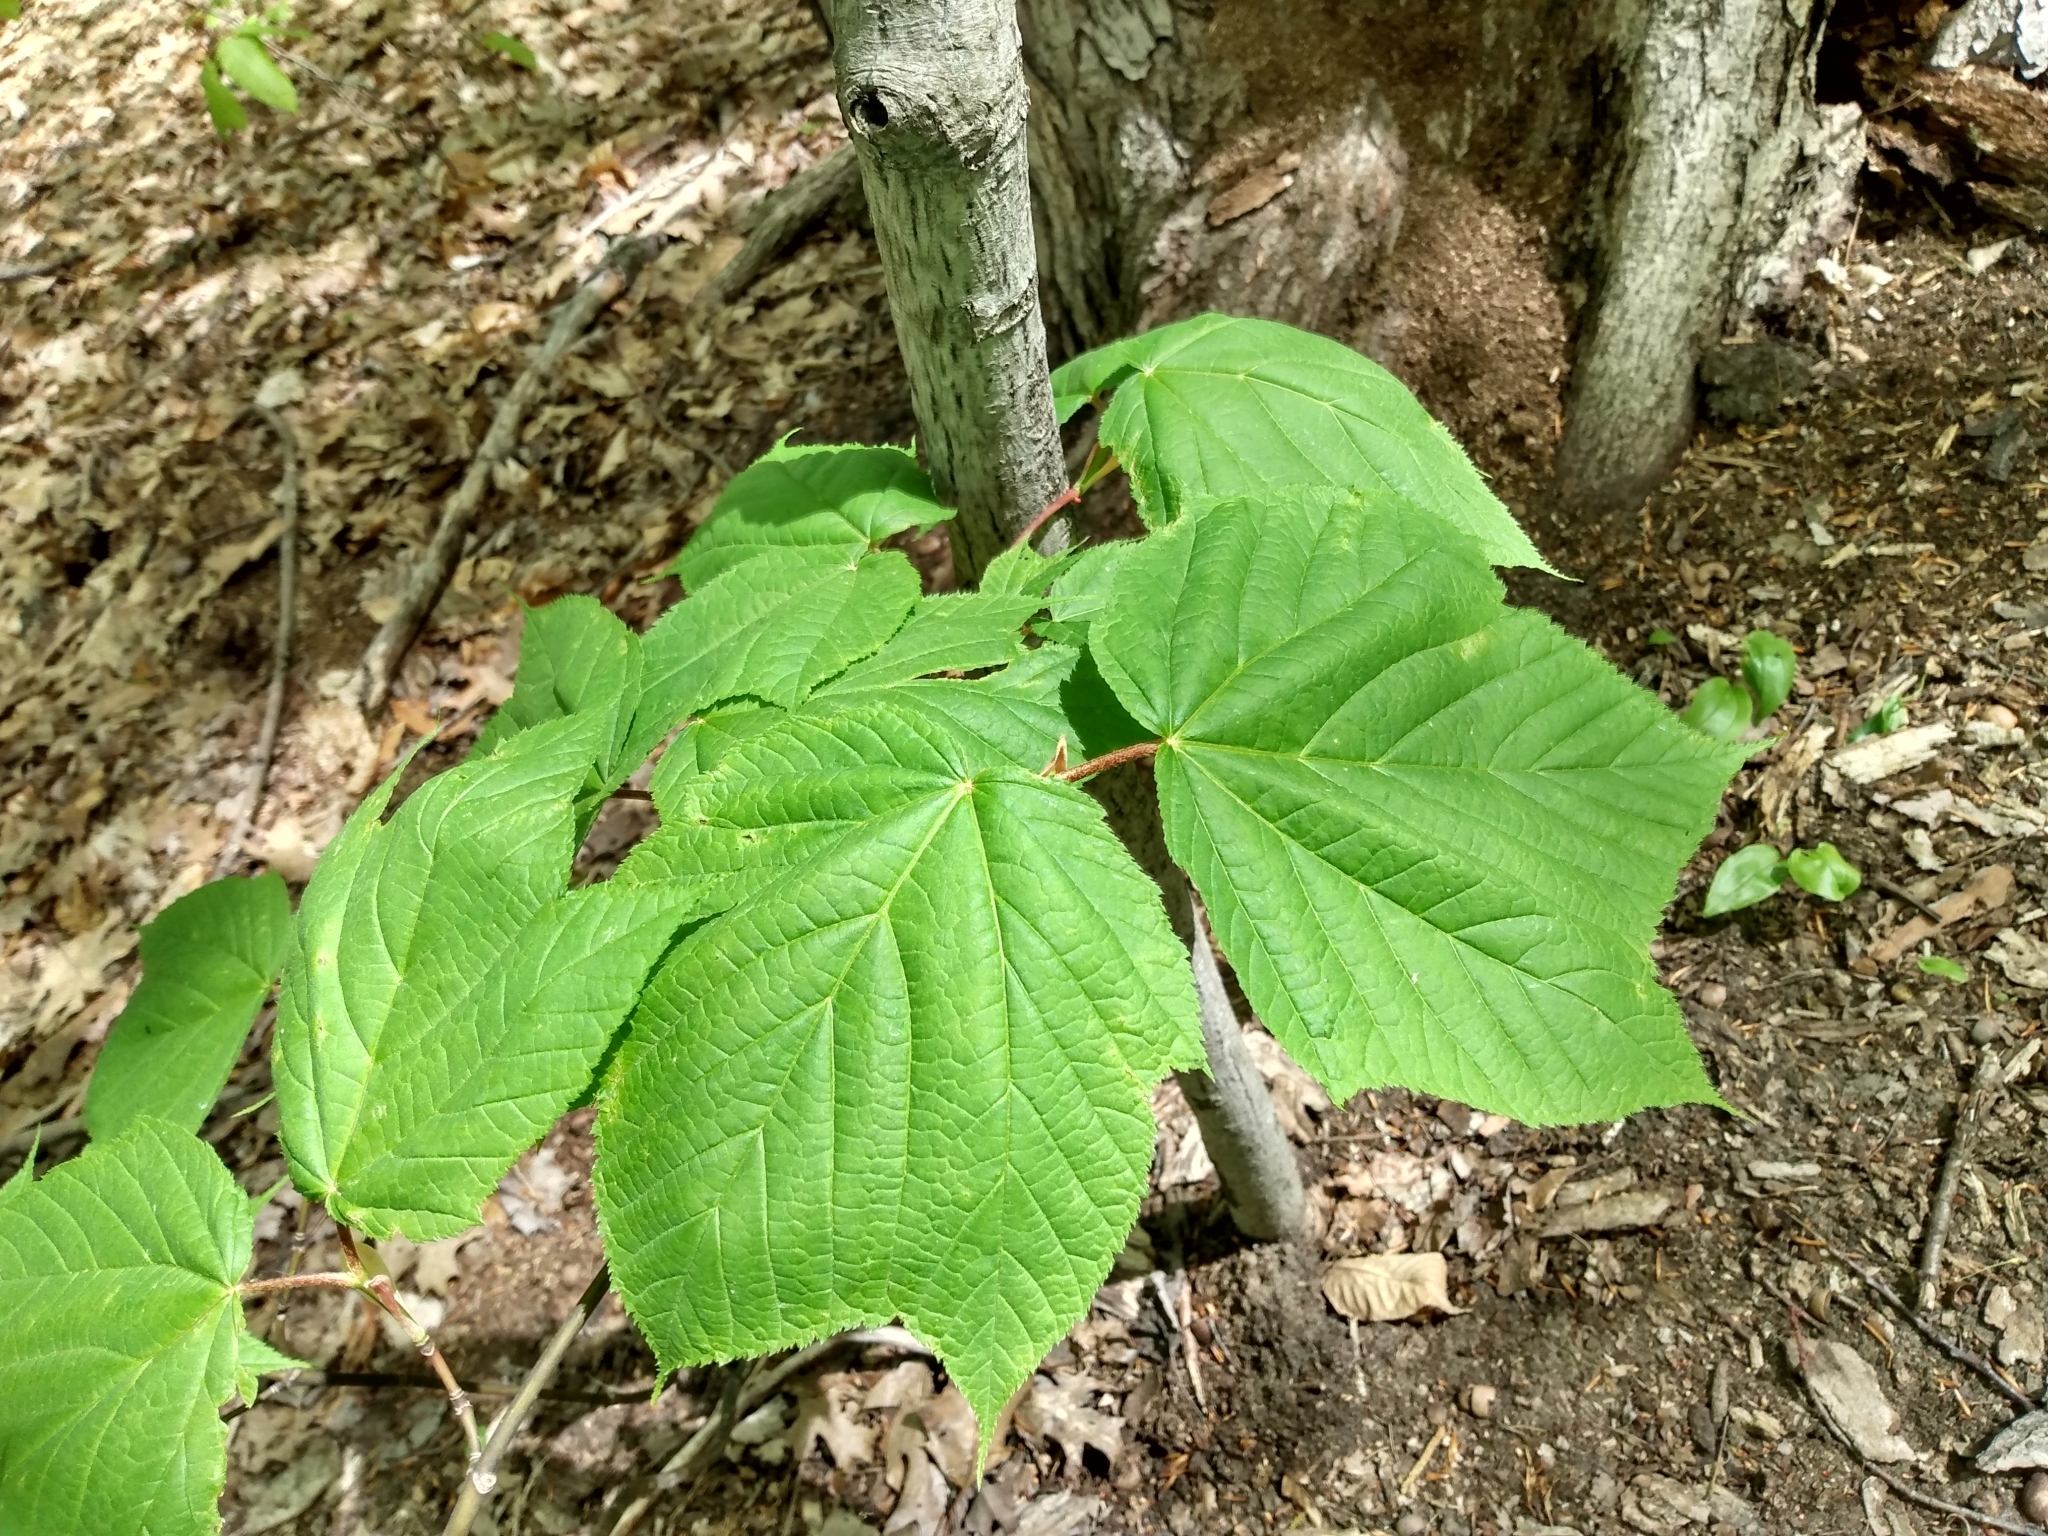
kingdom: Plantae
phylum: Tracheophyta
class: Magnoliopsida
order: Sapindales
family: Sapindaceae
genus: Acer
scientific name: Acer pensylvanicum
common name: Moosewood
